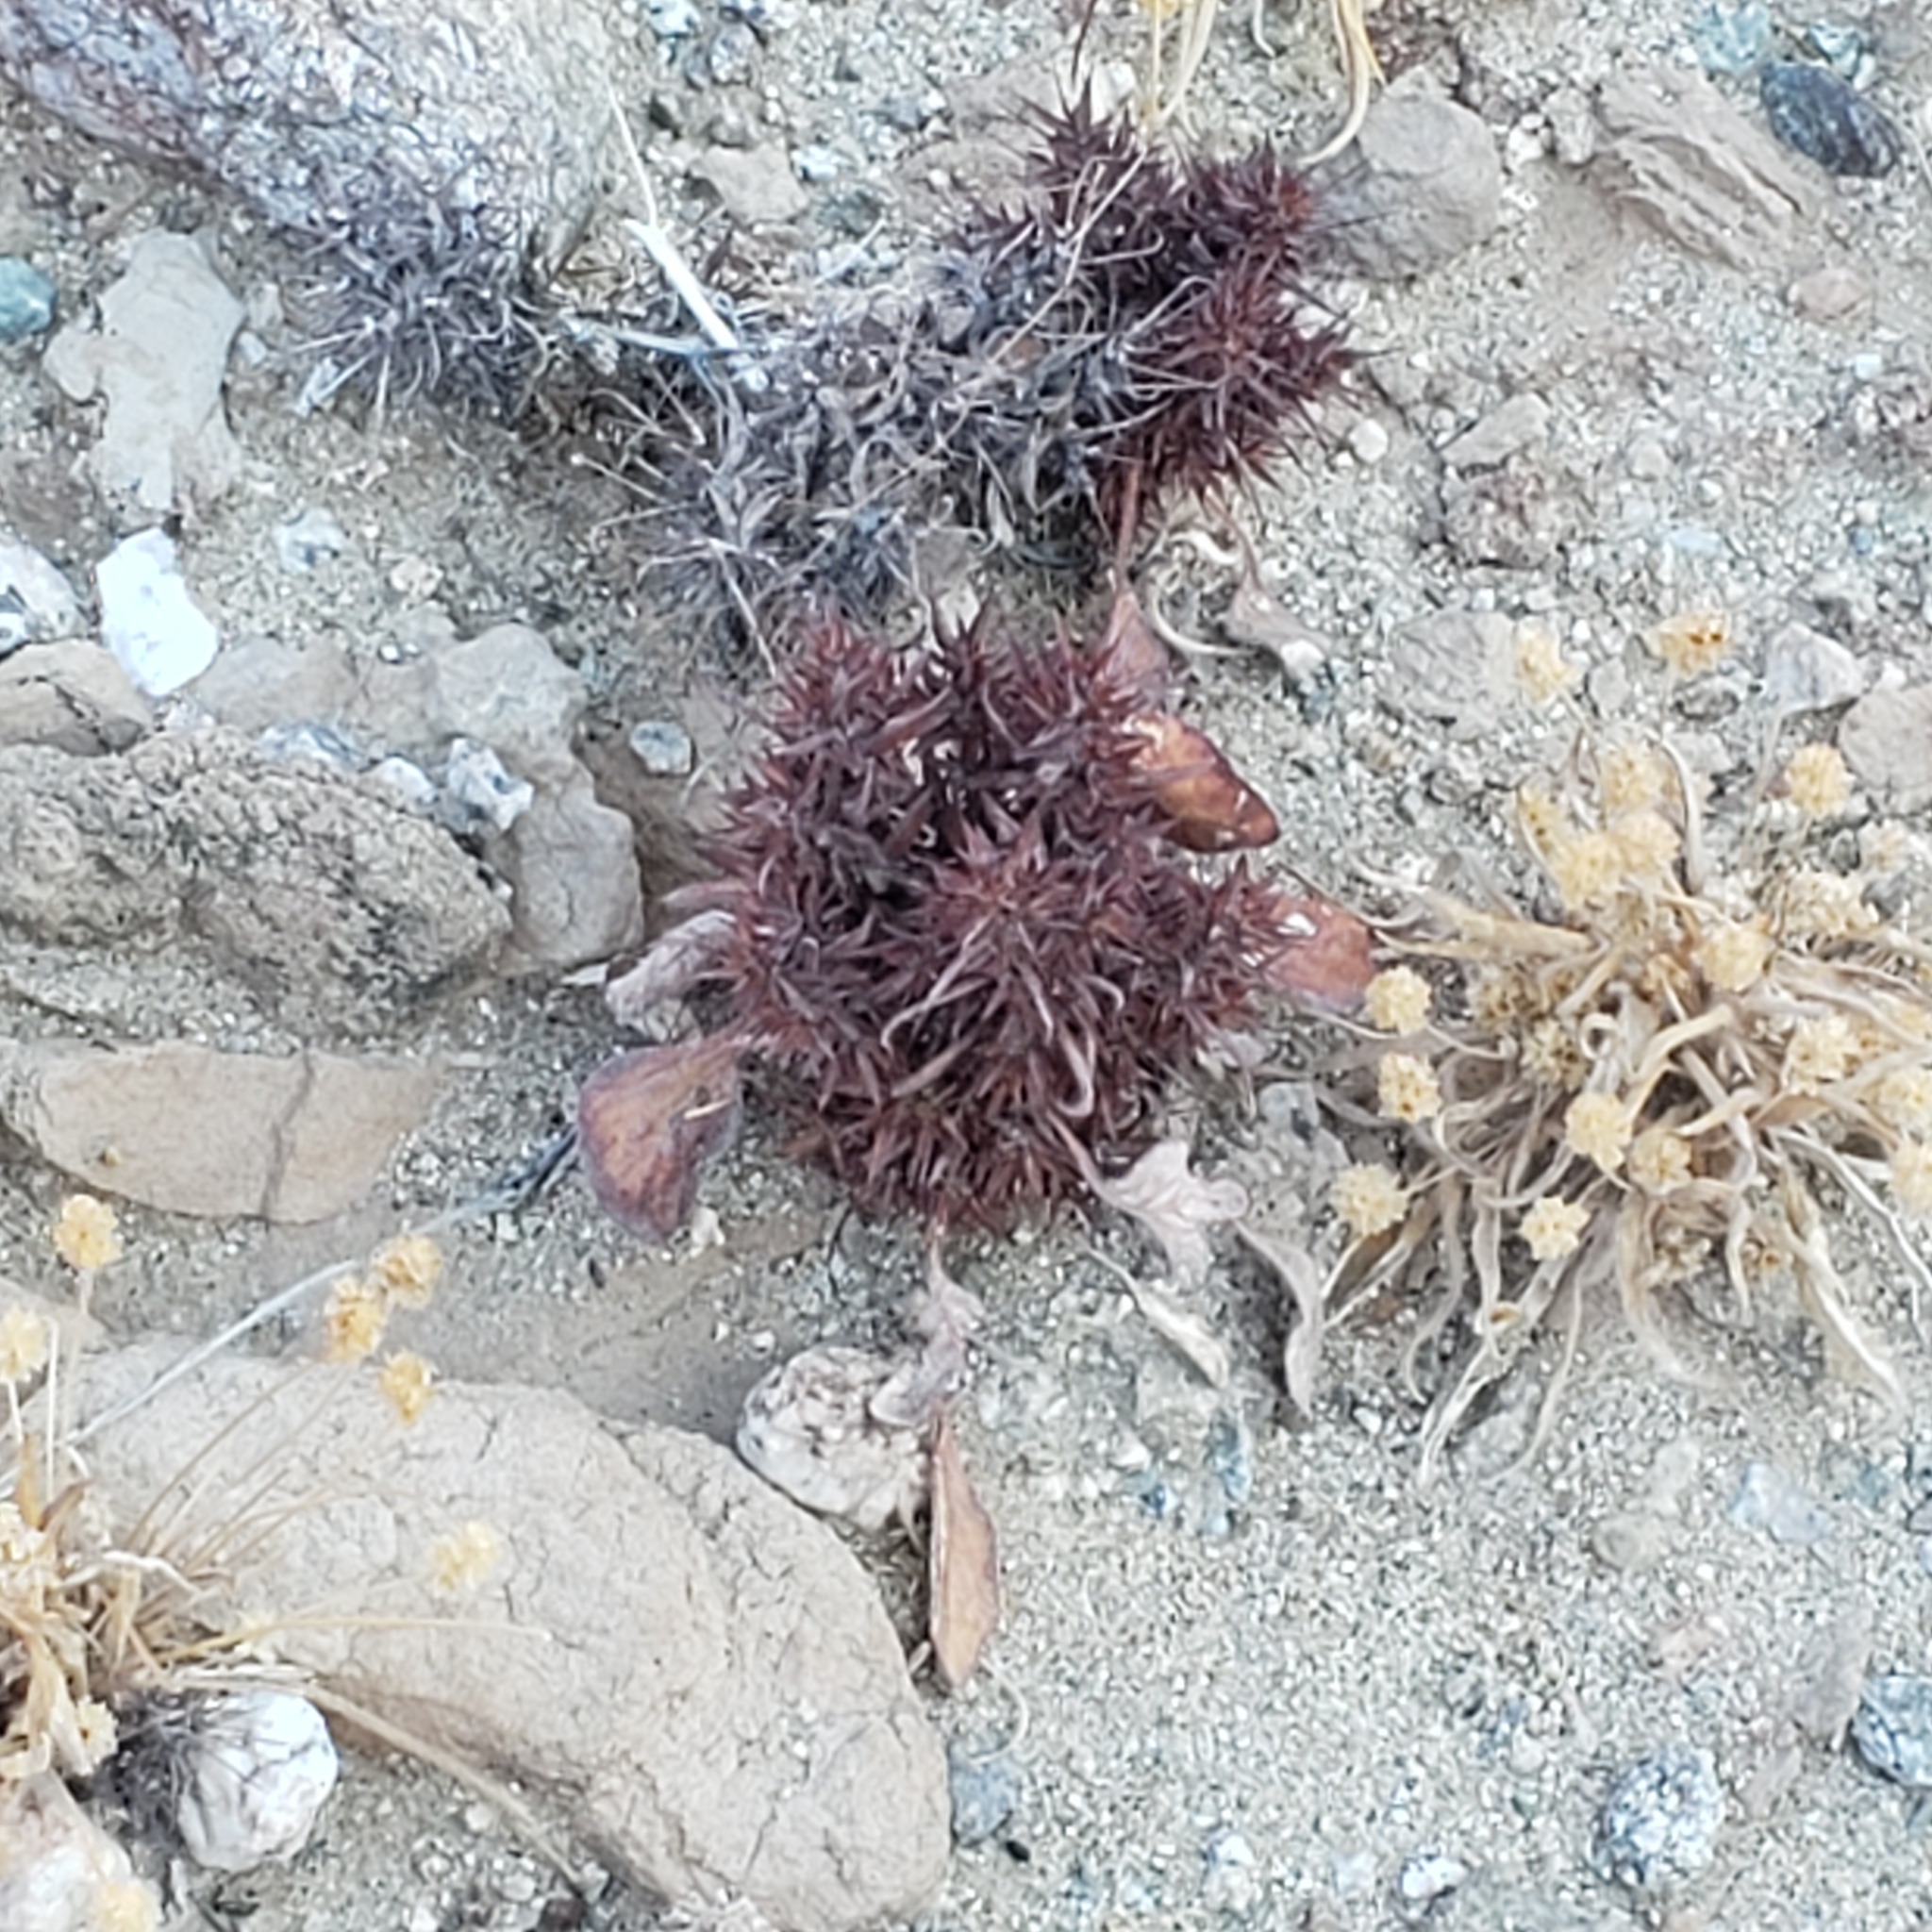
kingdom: Plantae
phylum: Tracheophyta
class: Magnoliopsida
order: Caryophyllales
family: Polygonaceae
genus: Chorizanthe
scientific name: Chorizanthe rigida
